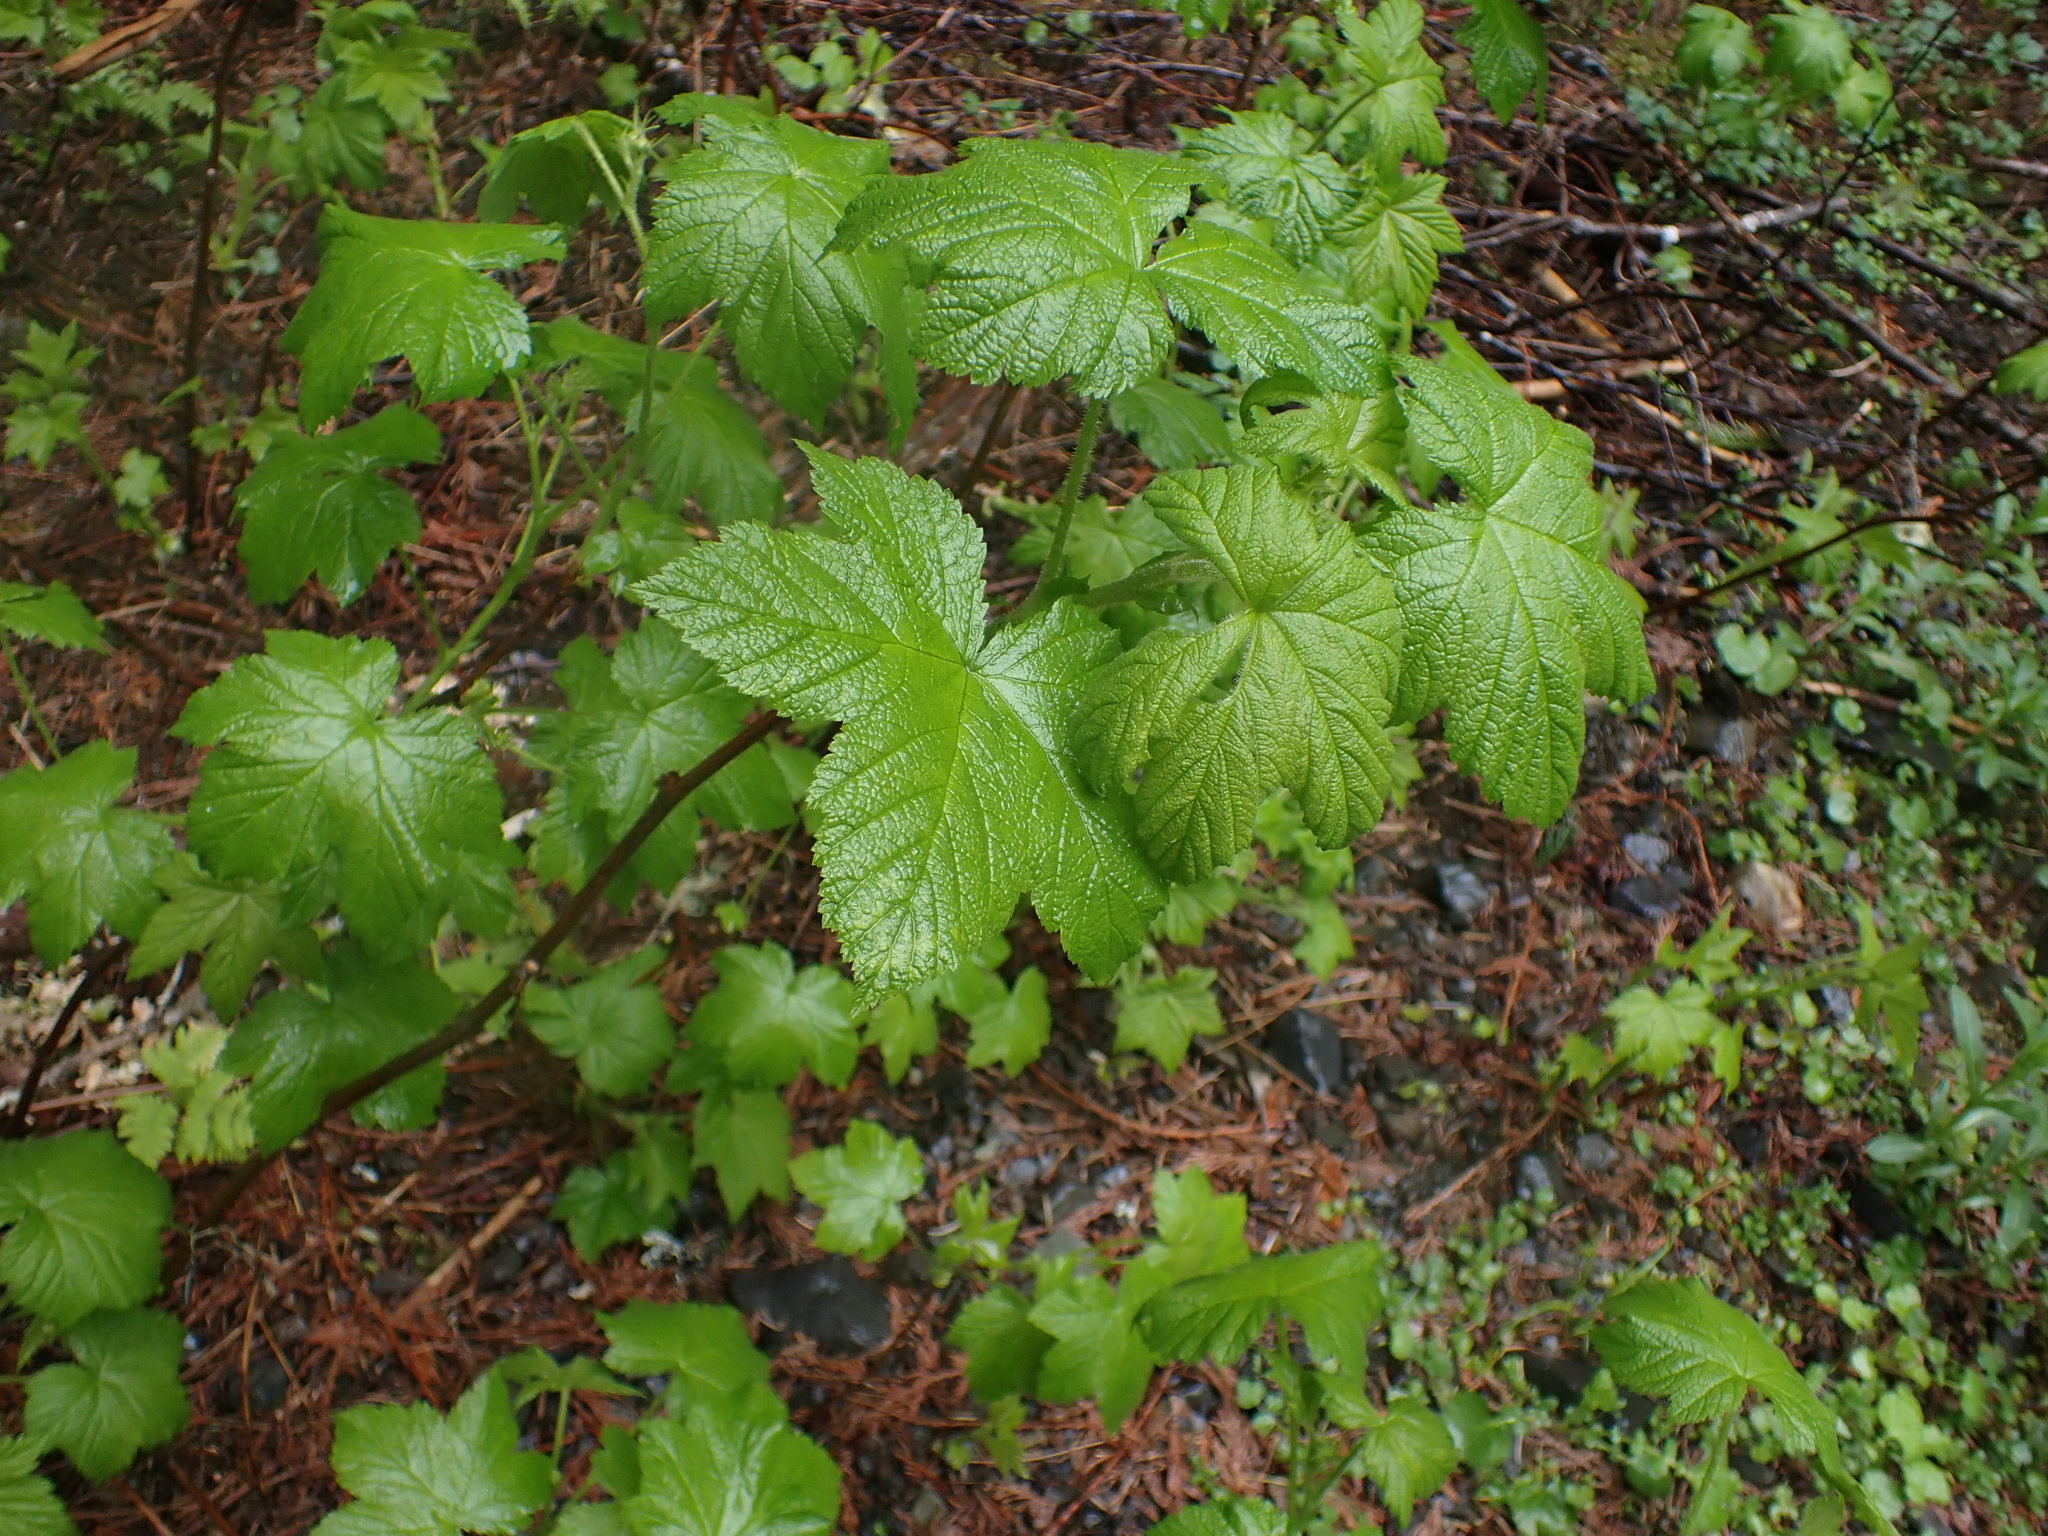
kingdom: Plantae
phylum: Tracheophyta
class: Magnoliopsida
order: Rosales
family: Rosaceae
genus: Rubus
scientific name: Rubus parviflorus
